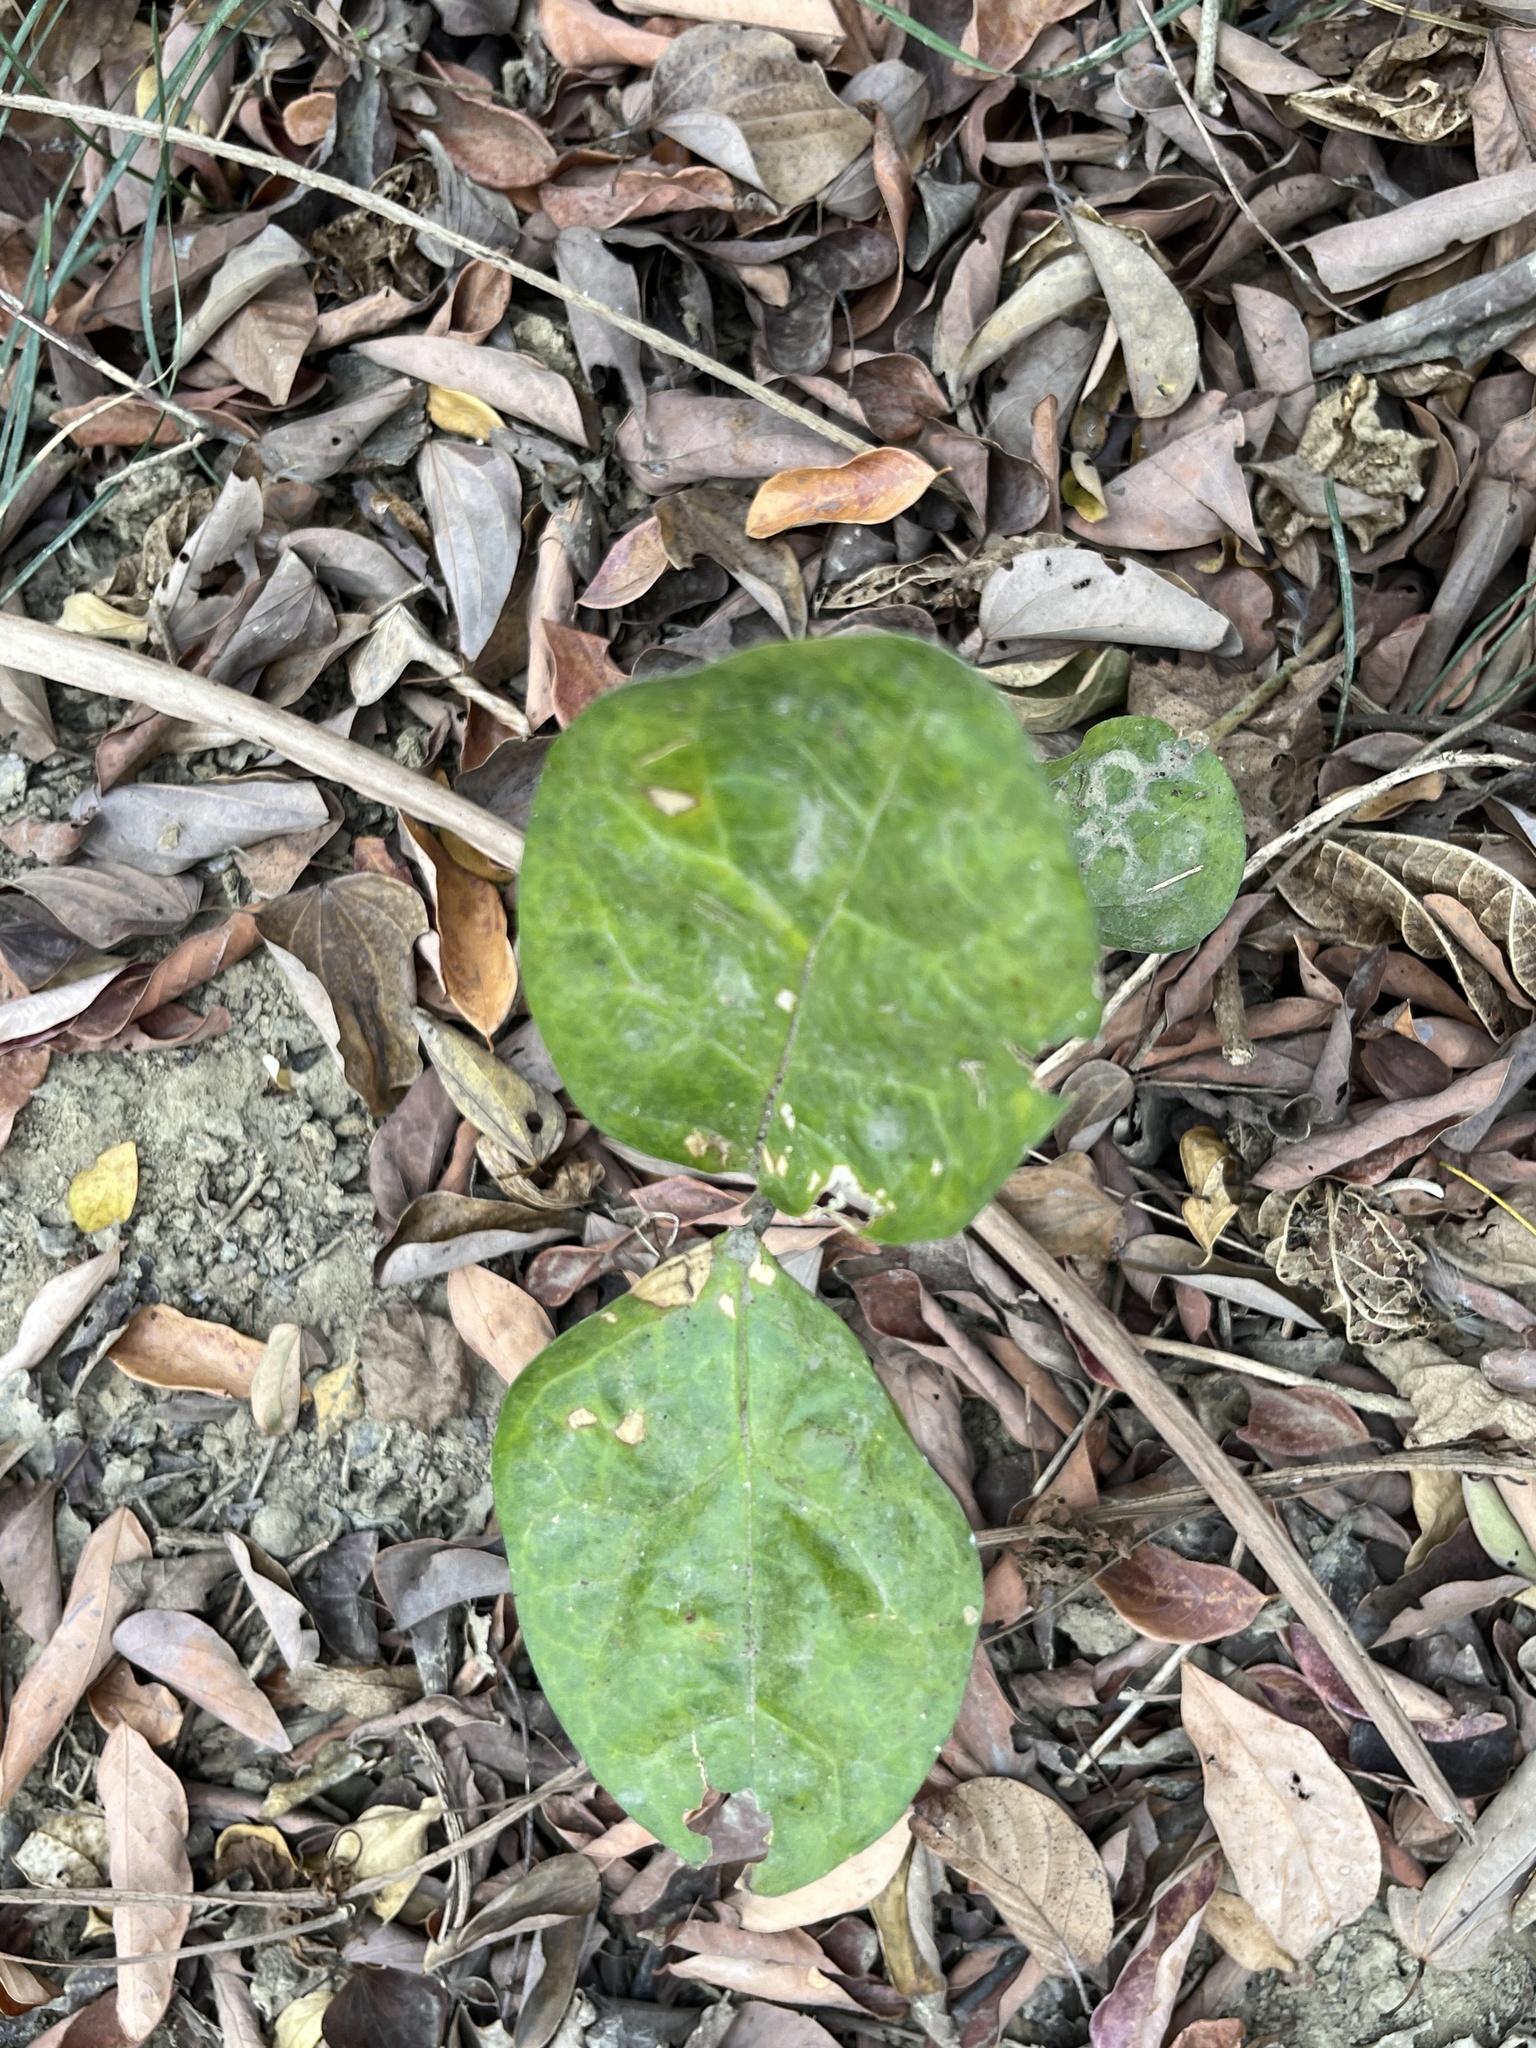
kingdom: Plantae
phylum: Tracheophyta
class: Magnoliopsida
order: Santalales
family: Opiliaceae
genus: Champereia
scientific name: Champereia manillana
